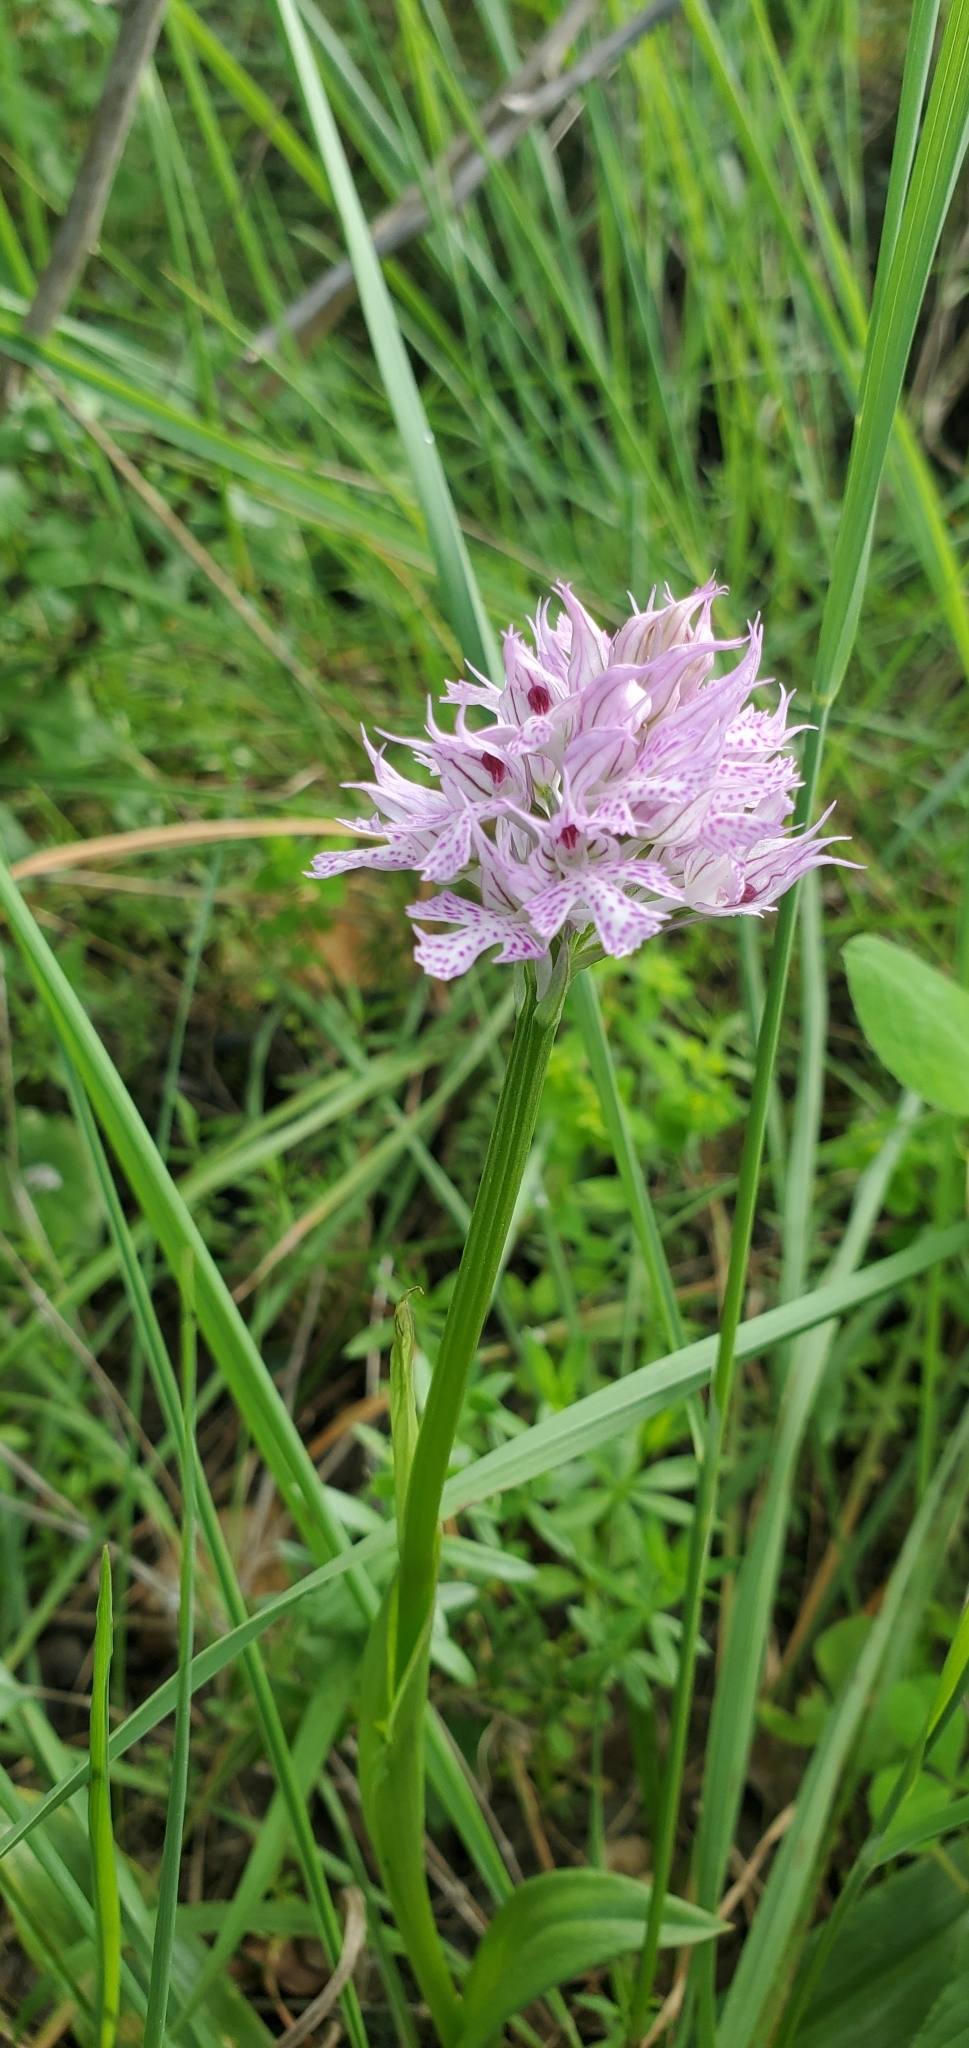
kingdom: Plantae
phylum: Tracheophyta
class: Liliopsida
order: Asparagales
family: Orchidaceae
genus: Neotinea
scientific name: Neotinea tridentata
